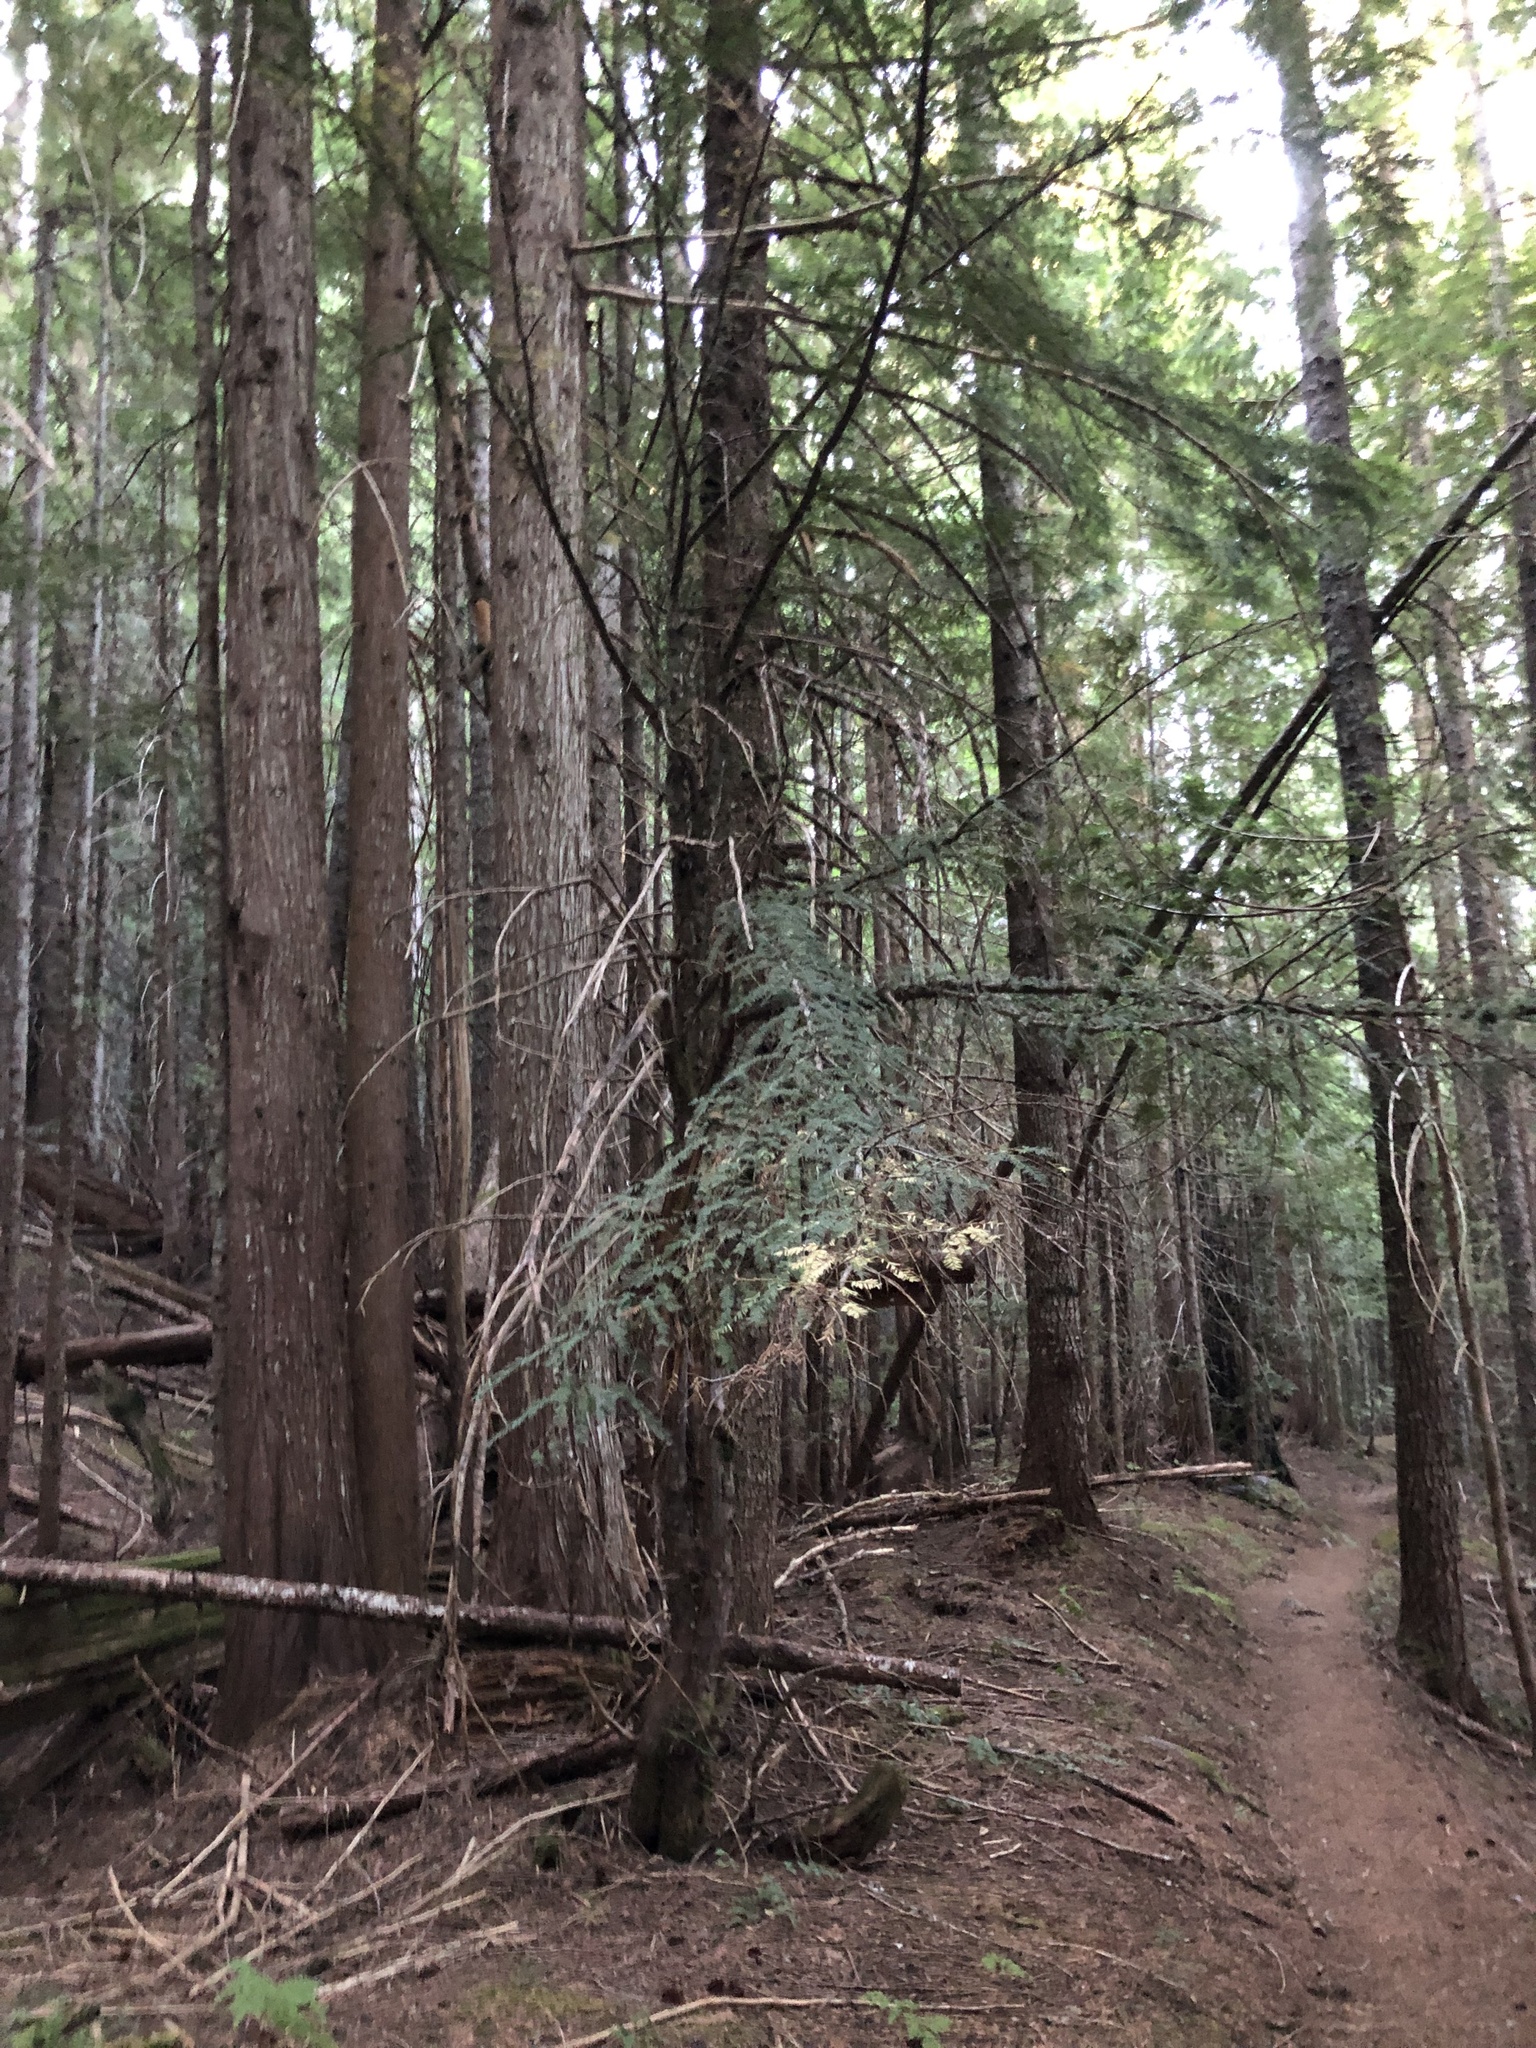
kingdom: Plantae
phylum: Tracheophyta
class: Pinopsida
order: Pinales
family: Taxaceae
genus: Taxus
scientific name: Taxus brevifolia
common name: Pacific yew
